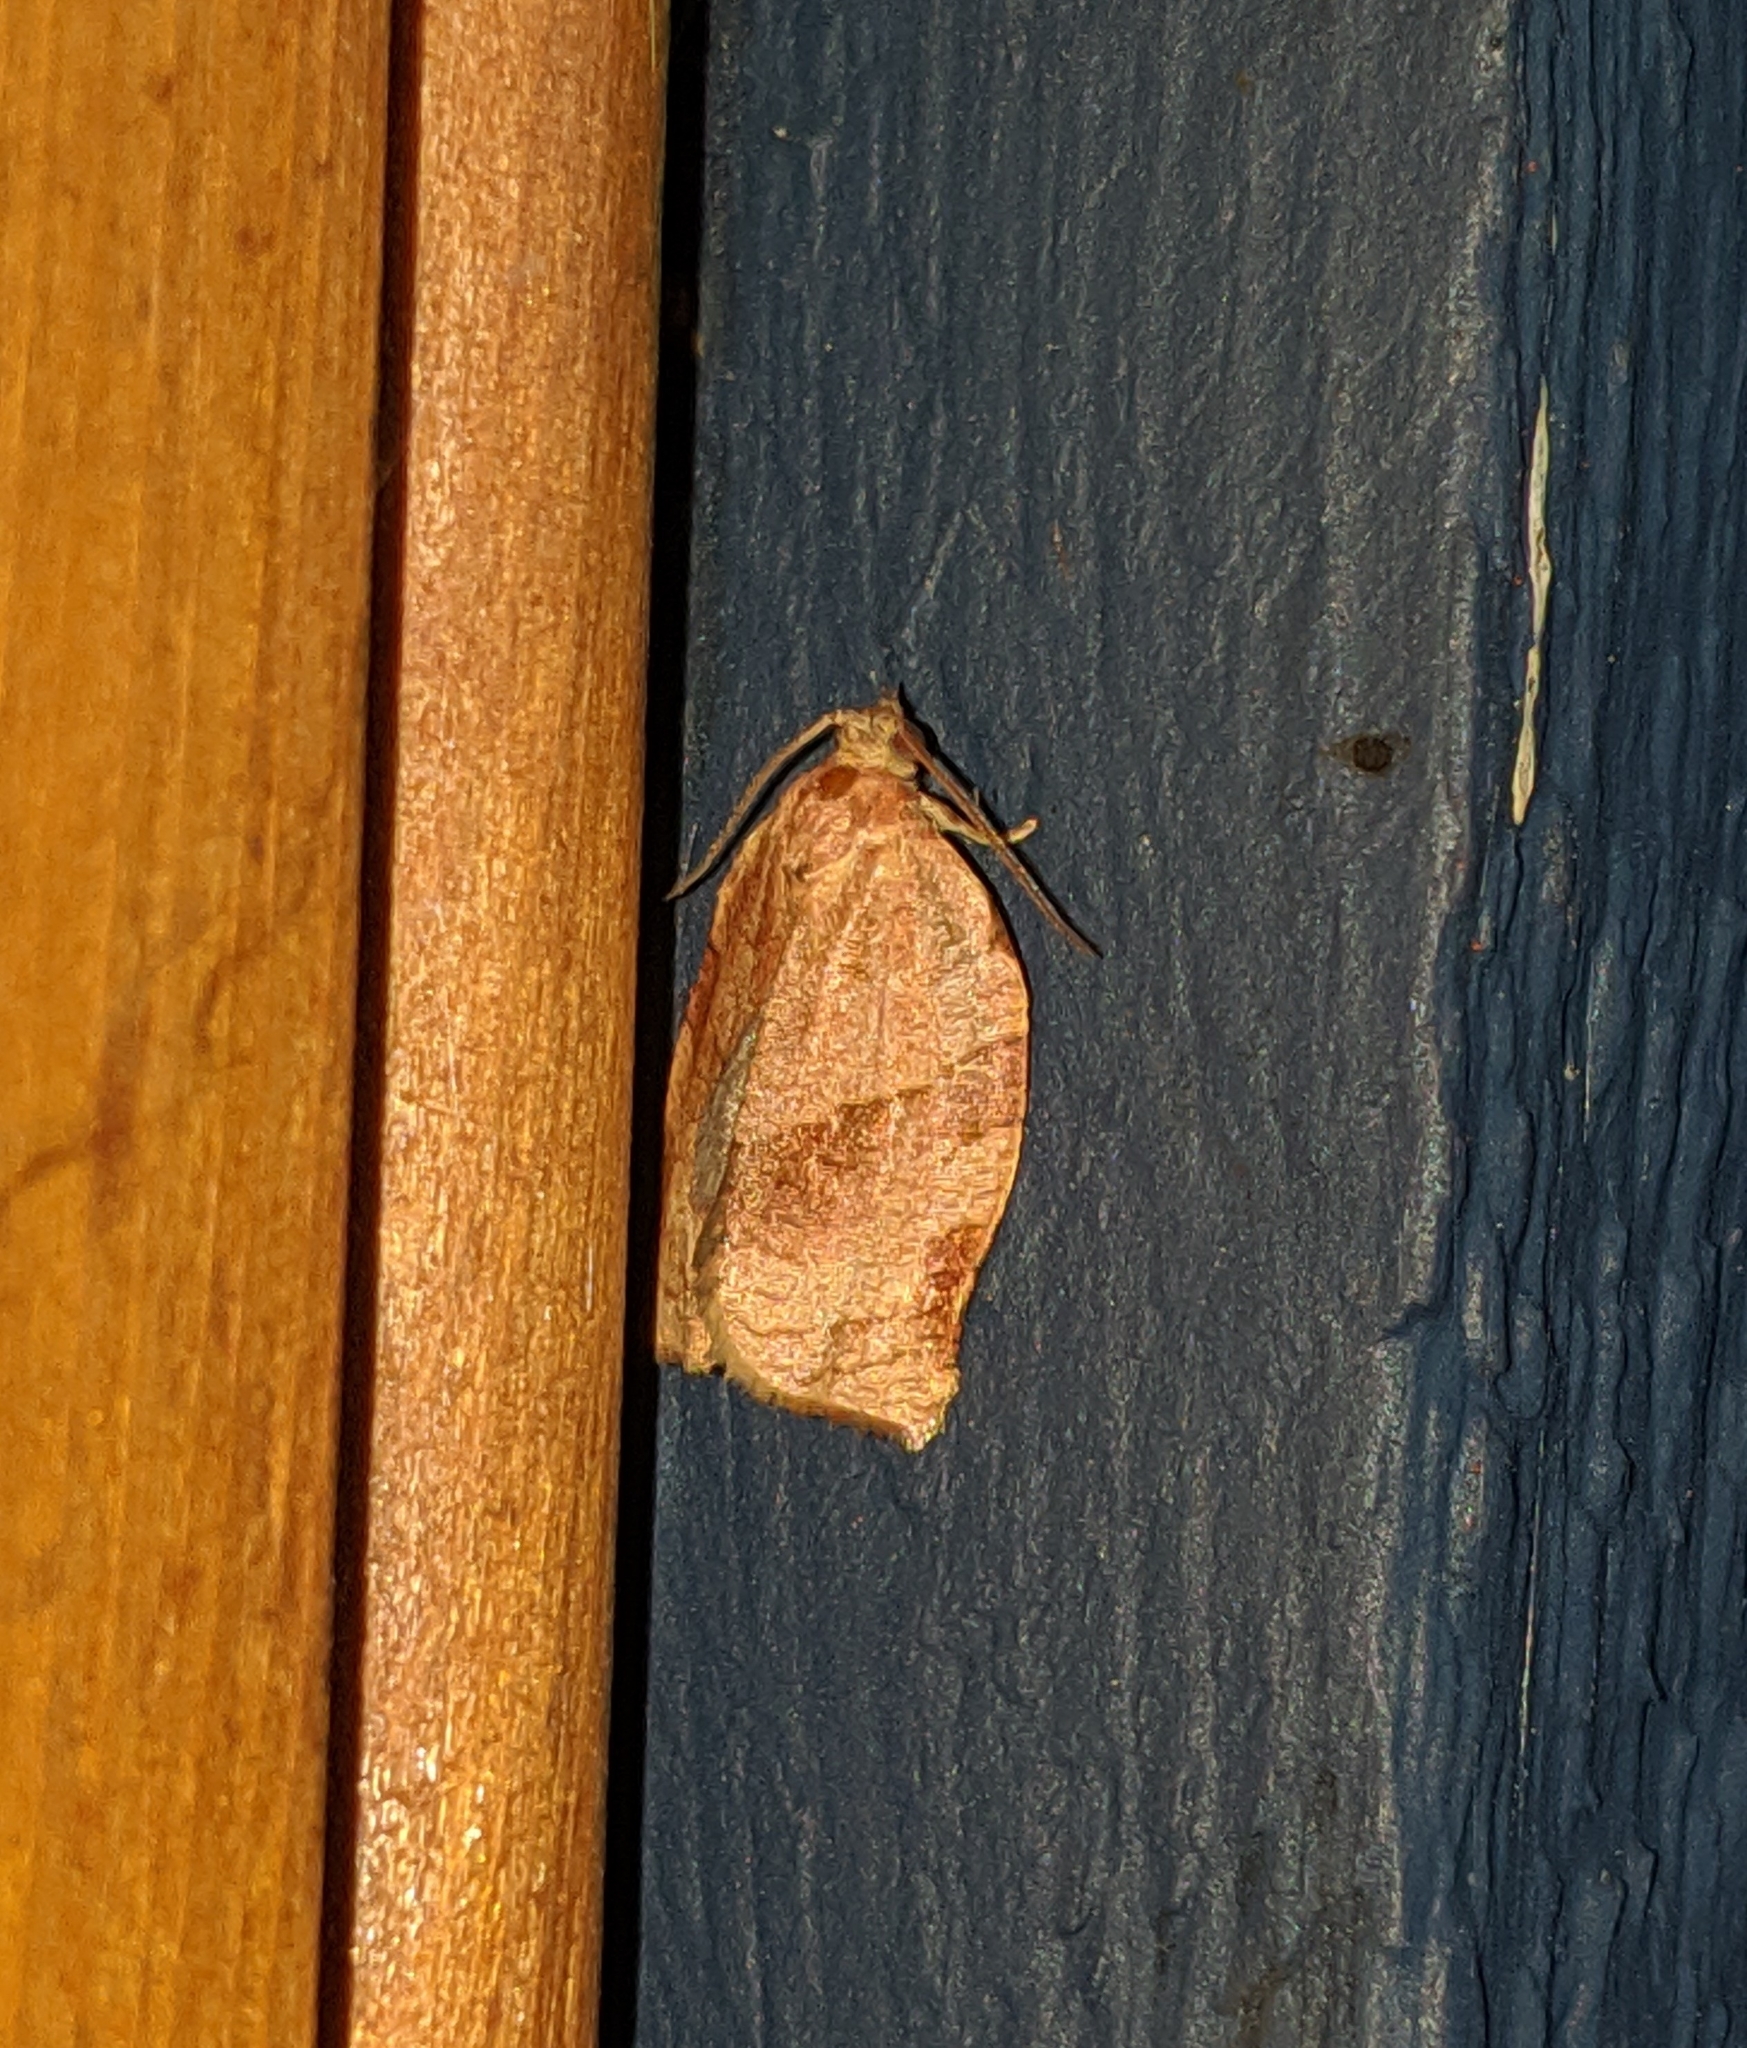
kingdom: Animalia
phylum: Arthropoda
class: Insecta
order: Lepidoptera
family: Tortricidae
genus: Choristoneura
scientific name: Choristoneura rosaceana
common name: Oblique-banded leafroller moth
